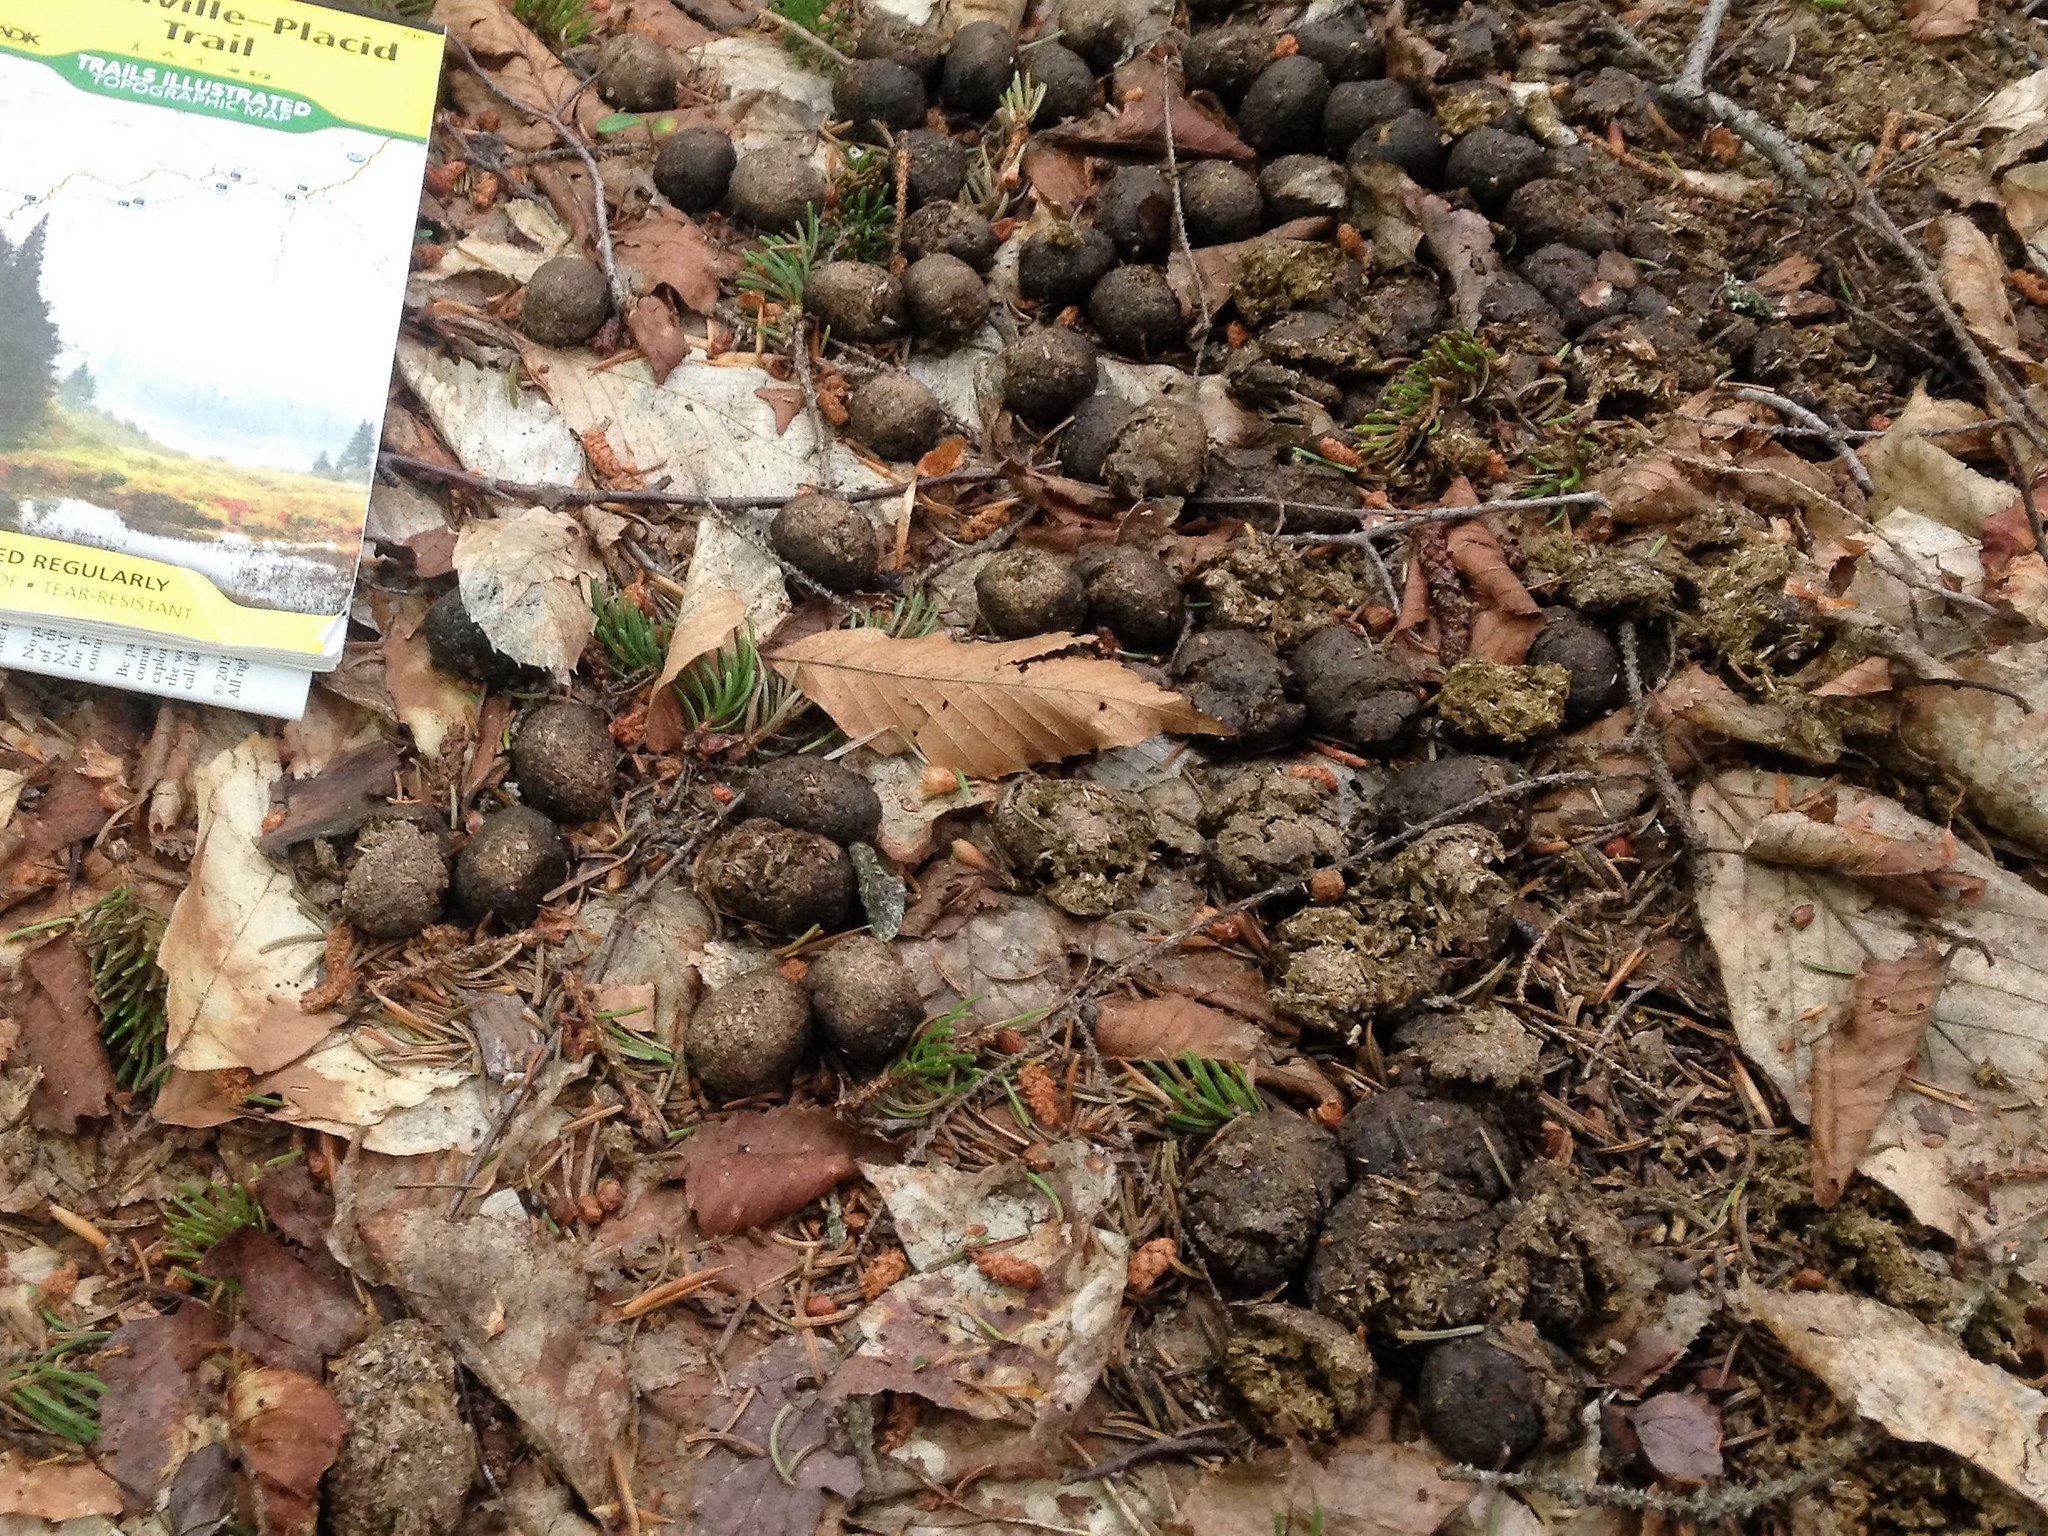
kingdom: Animalia
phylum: Chordata
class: Mammalia
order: Artiodactyla
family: Cervidae
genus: Alces
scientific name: Alces alces
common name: Moose
